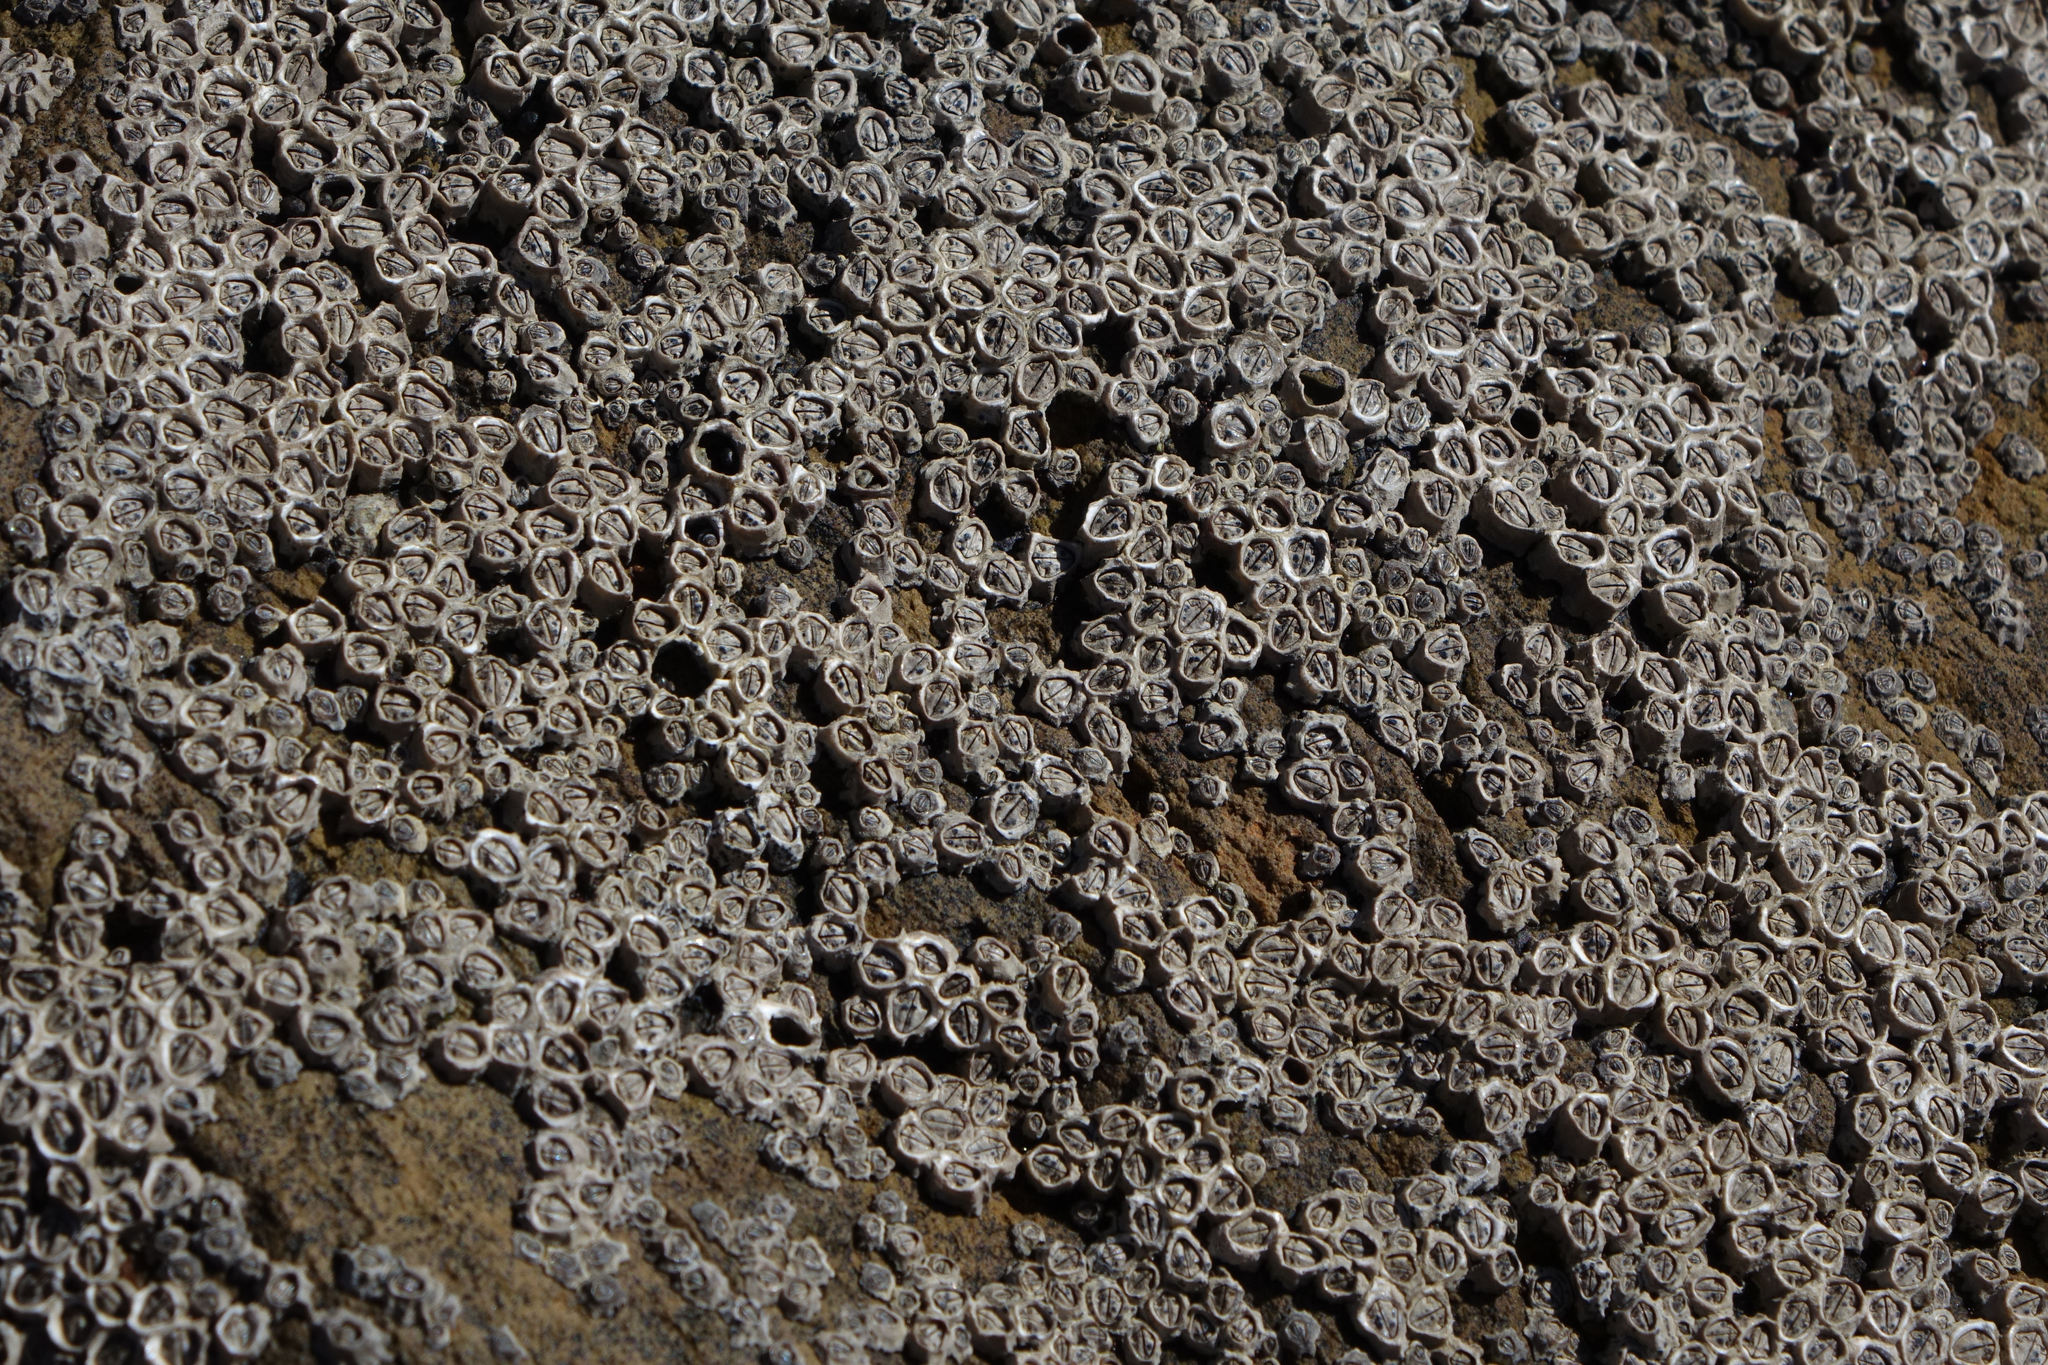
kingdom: Animalia
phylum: Arthropoda
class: Maxillopoda
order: Sessilia
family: Chthamalidae
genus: Chamaesipho
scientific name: Chamaesipho columna
